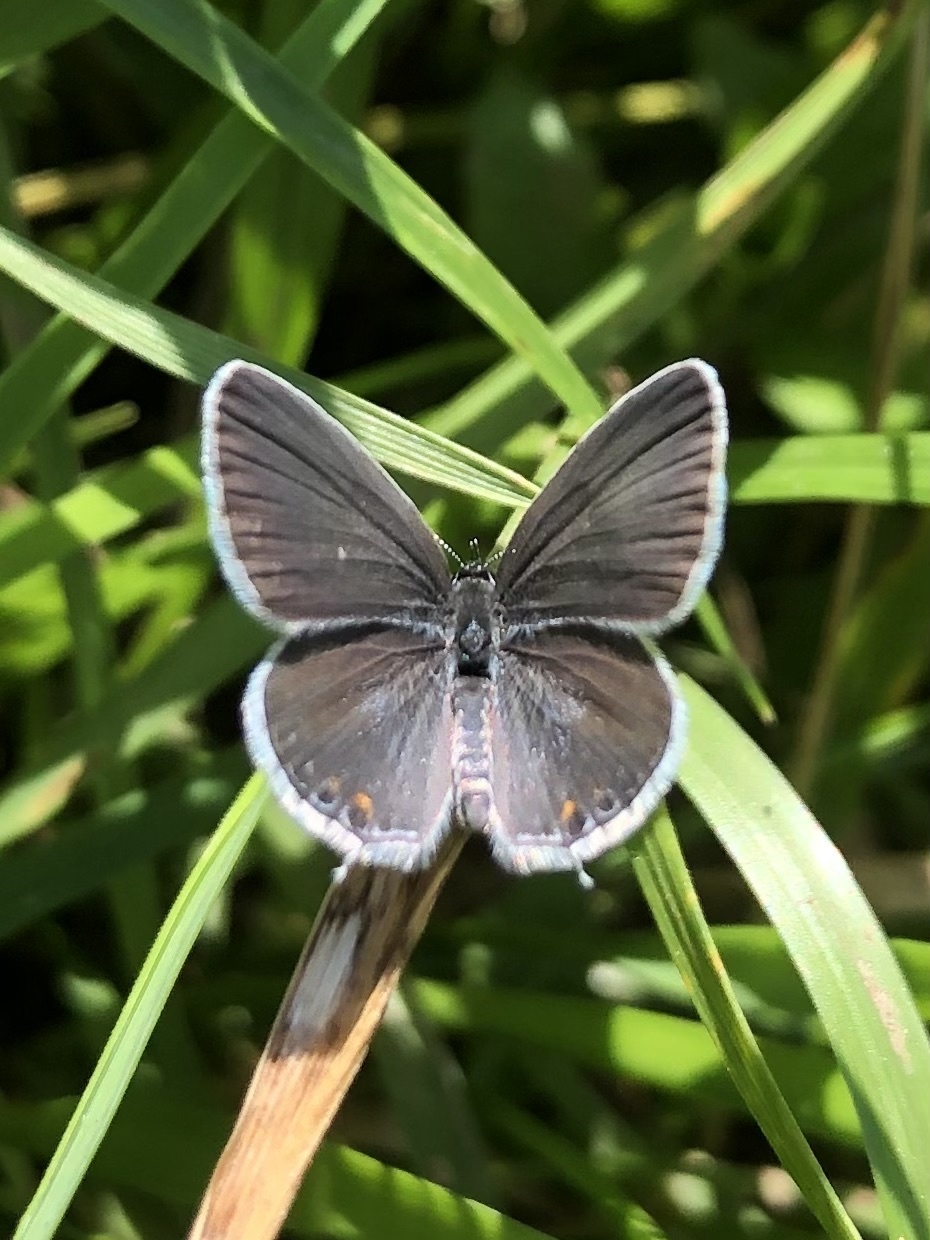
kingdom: Animalia
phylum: Arthropoda
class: Insecta
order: Lepidoptera
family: Lycaenidae
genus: Elkalyce
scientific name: Elkalyce comyntas
